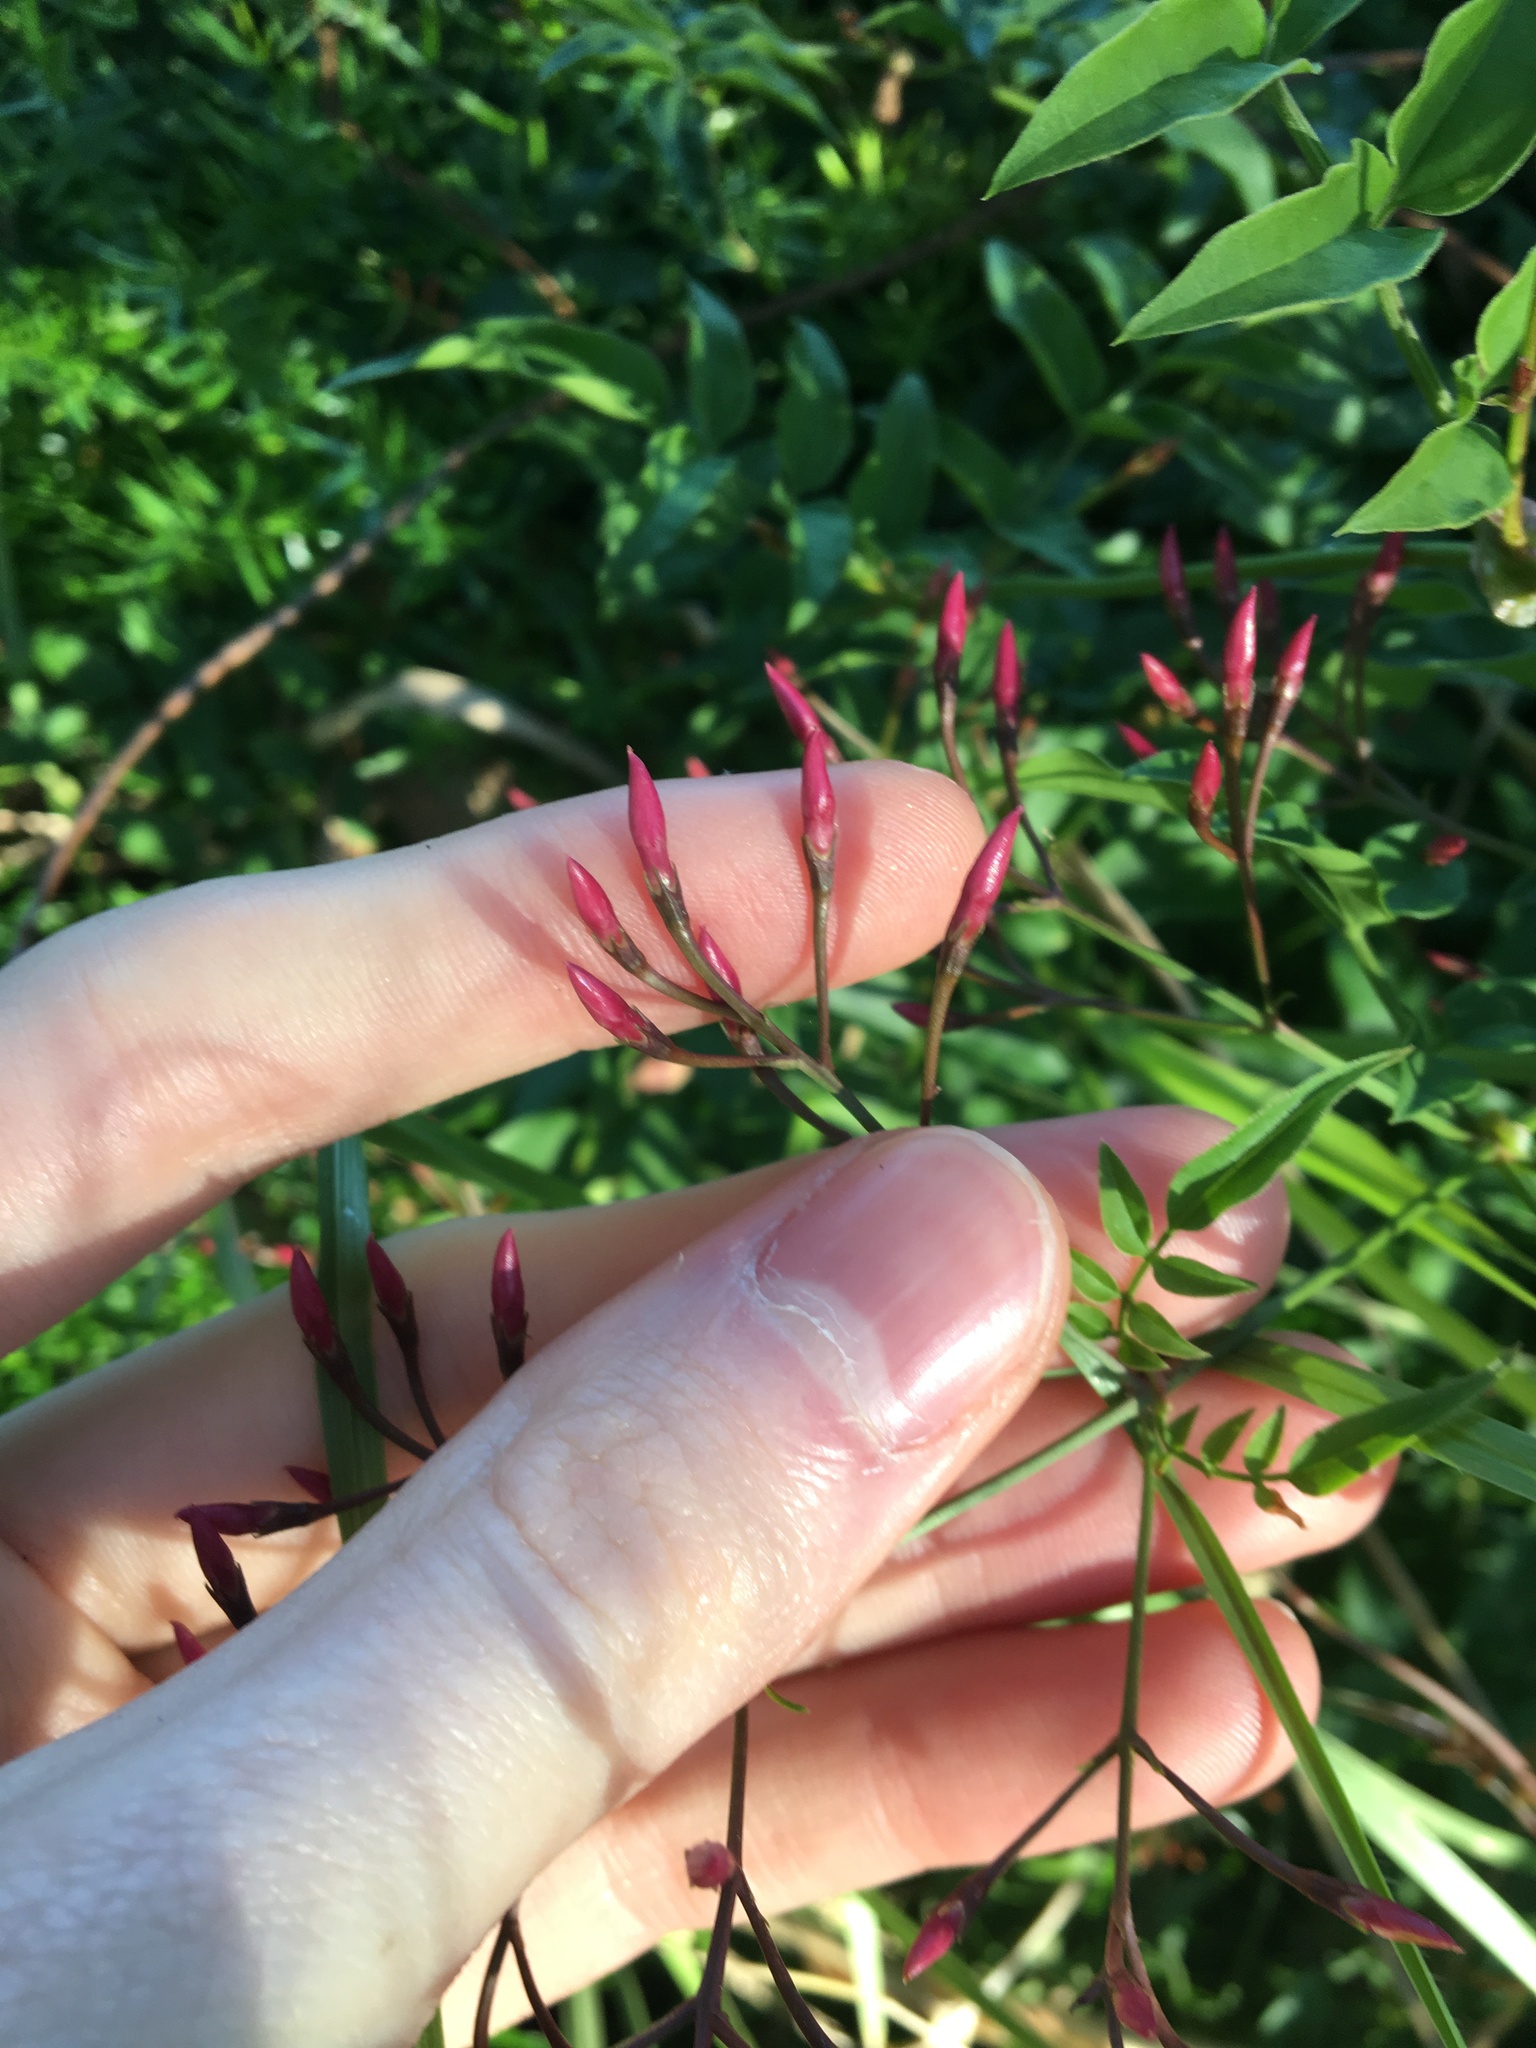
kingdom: Plantae
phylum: Tracheophyta
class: Magnoliopsida
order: Lamiales
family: Oleaceae
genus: Jasminum
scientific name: Jasminum polyanthum
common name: Pink jasmine
